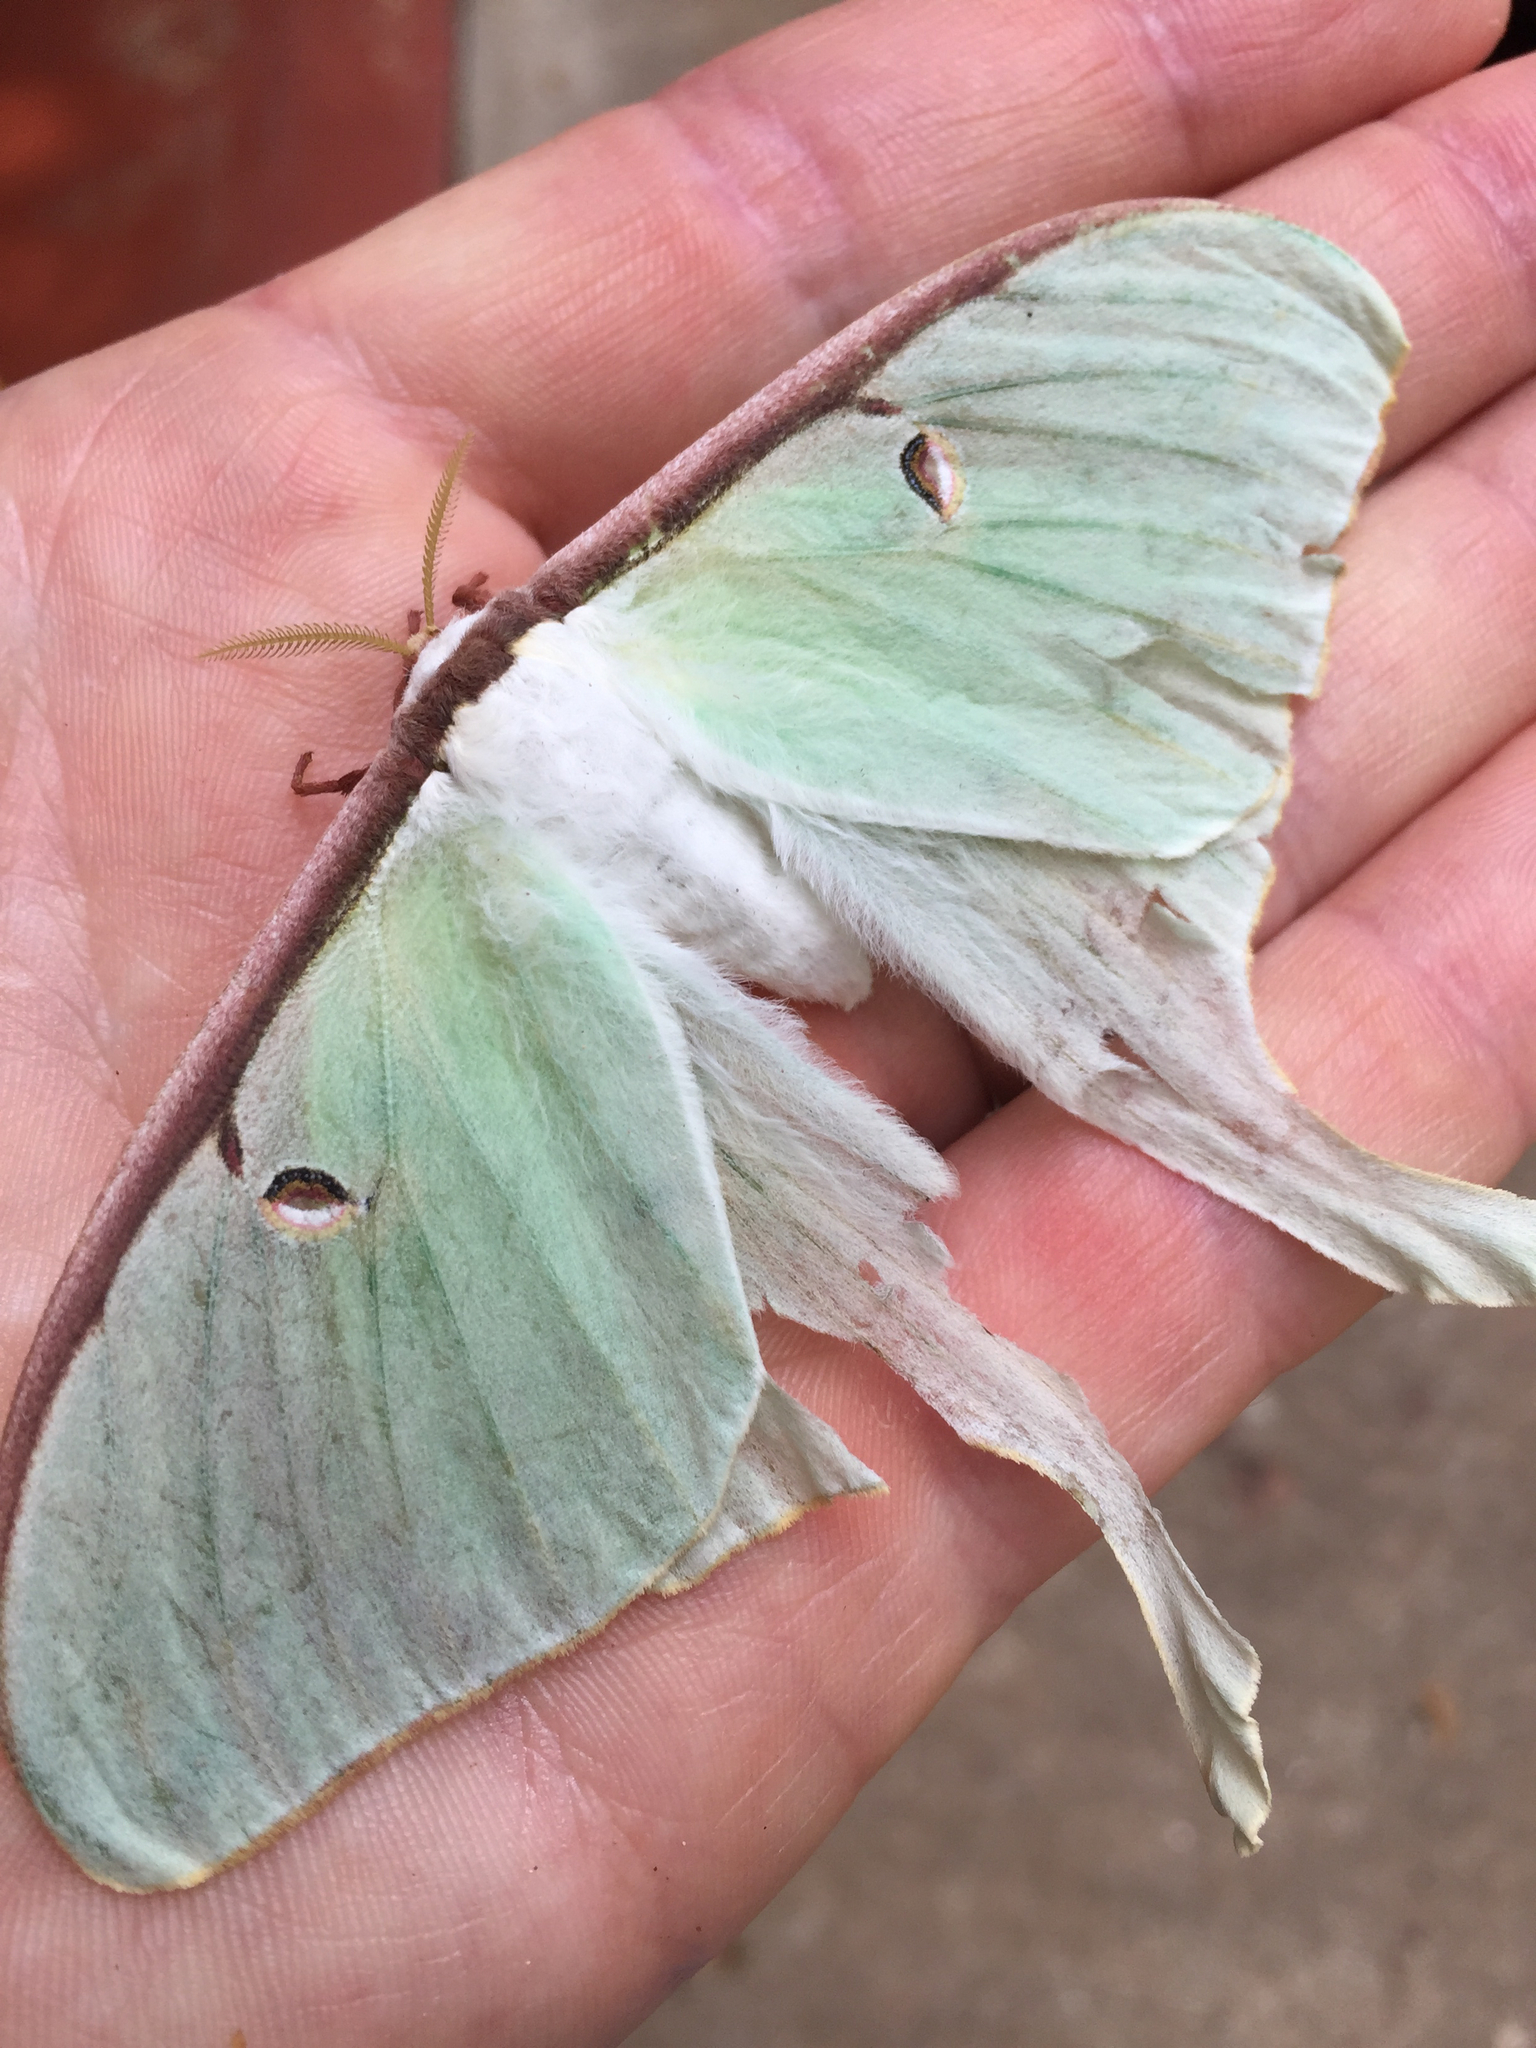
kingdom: Animalia
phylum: Arthropoda
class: Insecta
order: Lepidoptera
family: Saturniidae
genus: Actias
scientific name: Actias luna
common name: Luna moth
